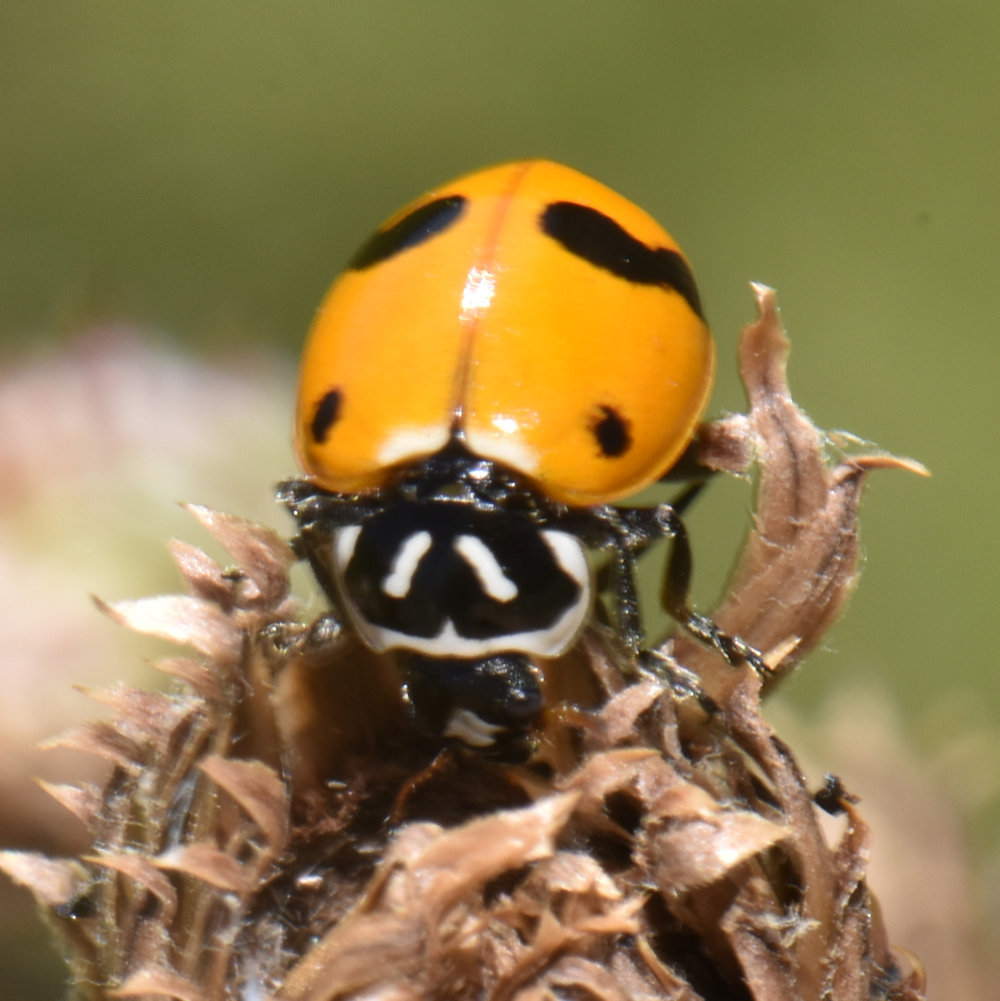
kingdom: Animalia
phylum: Arthropoda
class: Insecta
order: Coleoptera
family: Coccinellidae
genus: Hippodamia
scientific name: Hippodamia glacialis
